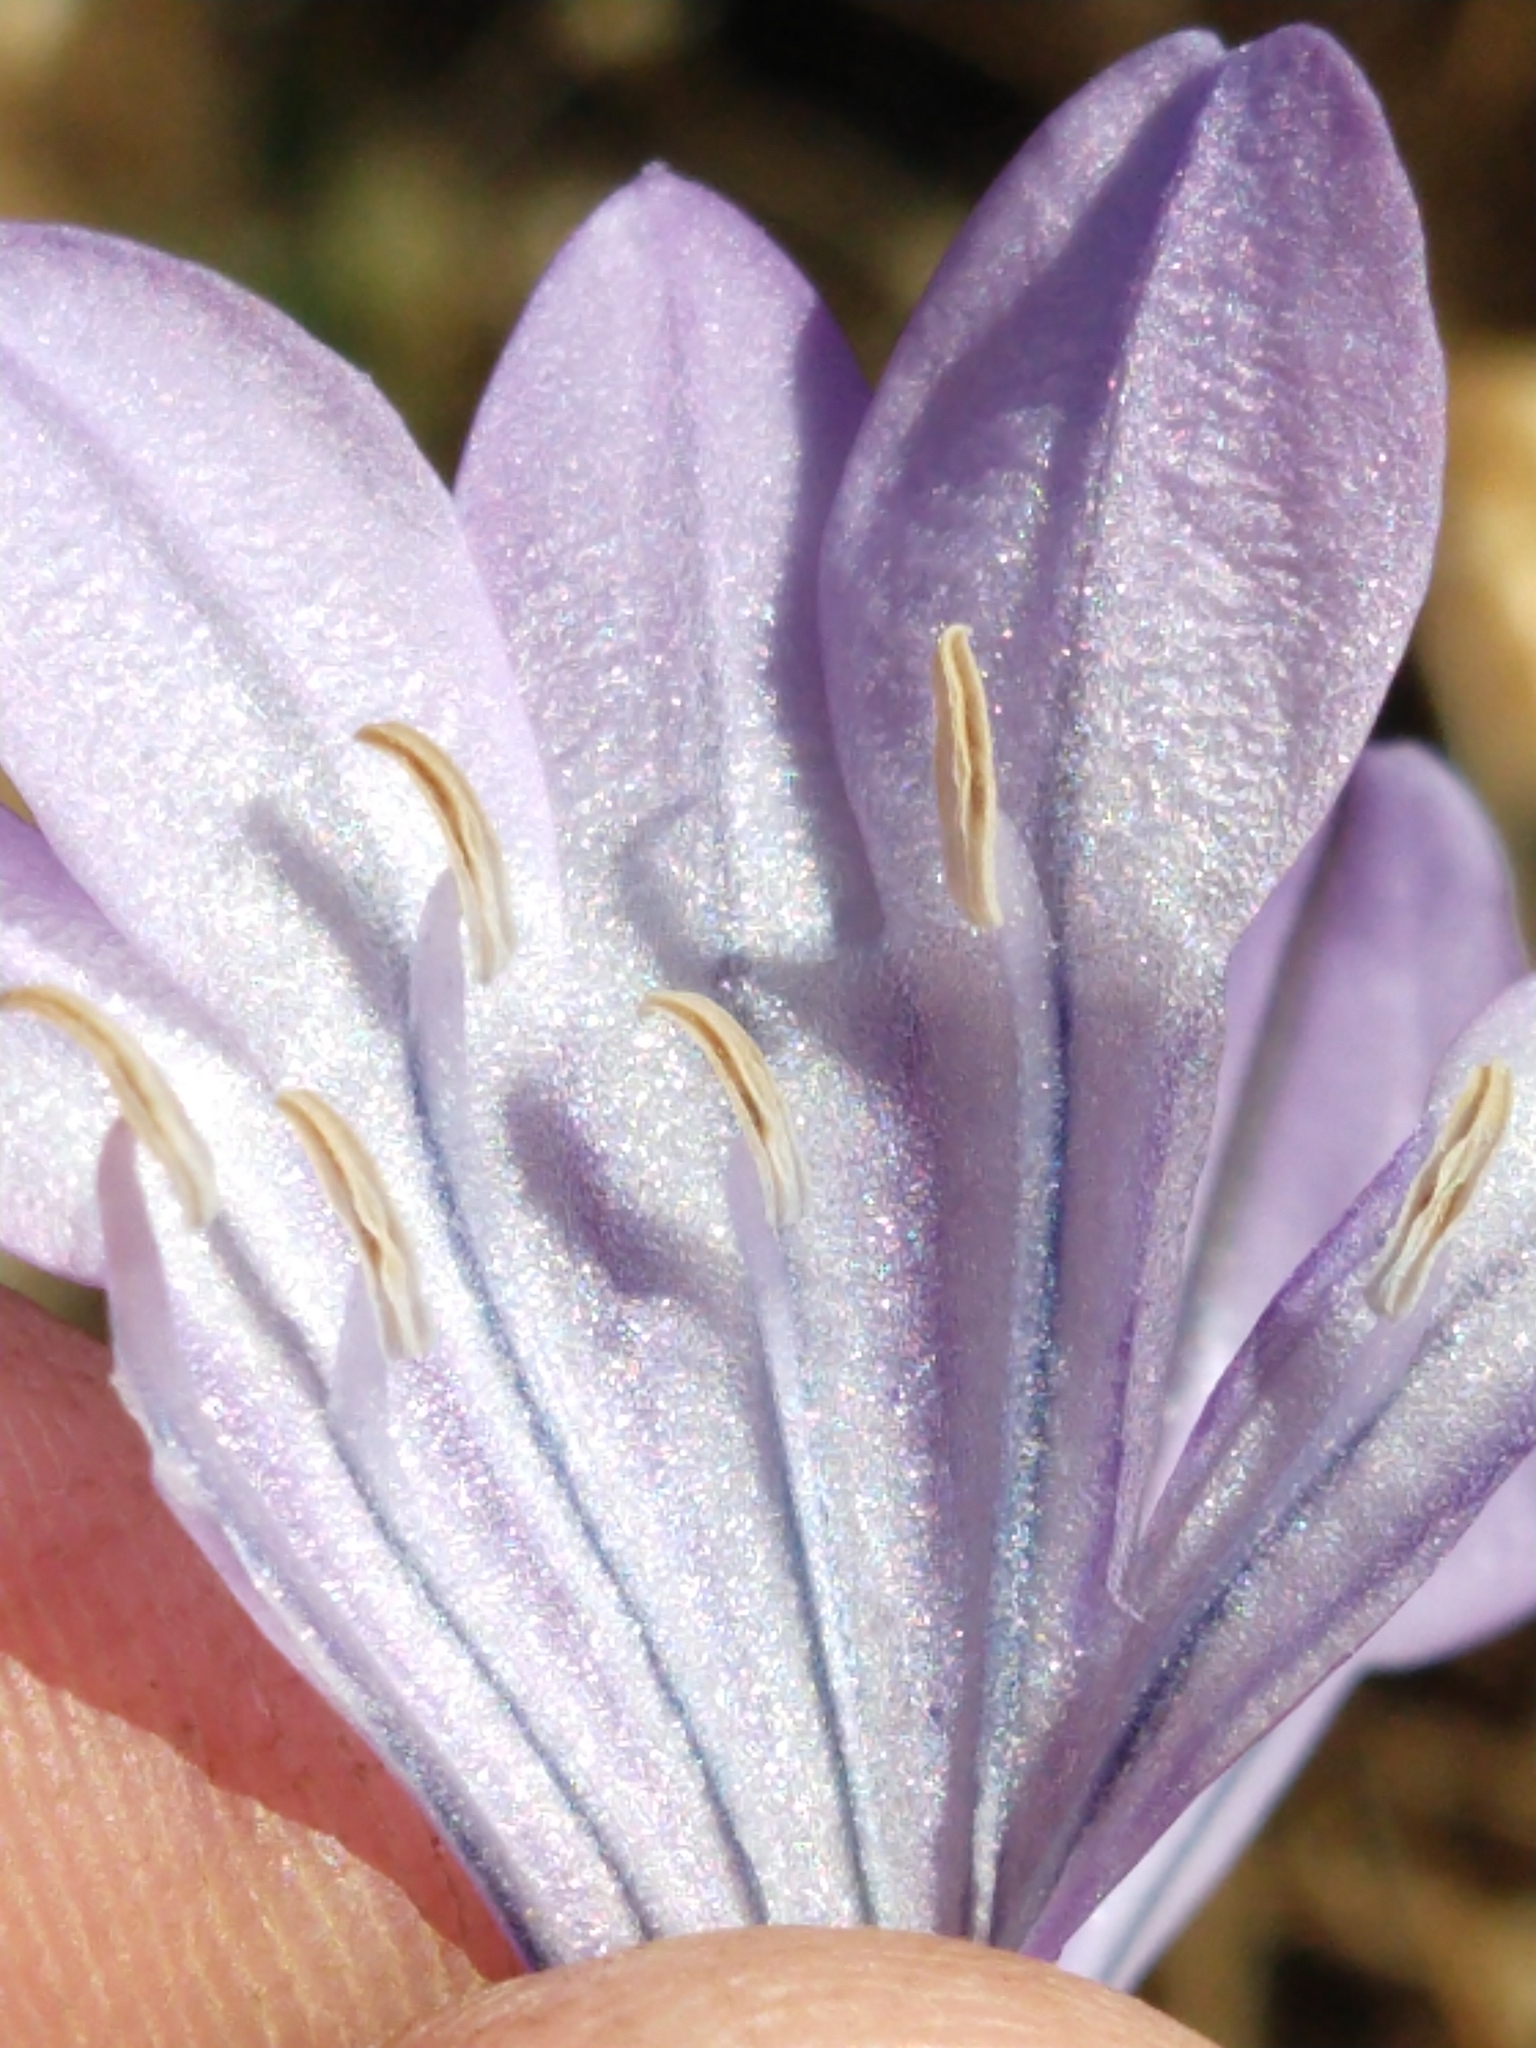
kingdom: Plantae
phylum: Tracheophyta
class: Liliopsida
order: Asparagales
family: Asparagaceae
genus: Triteleia
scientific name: Triteleia laxa
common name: Triplet-lily
